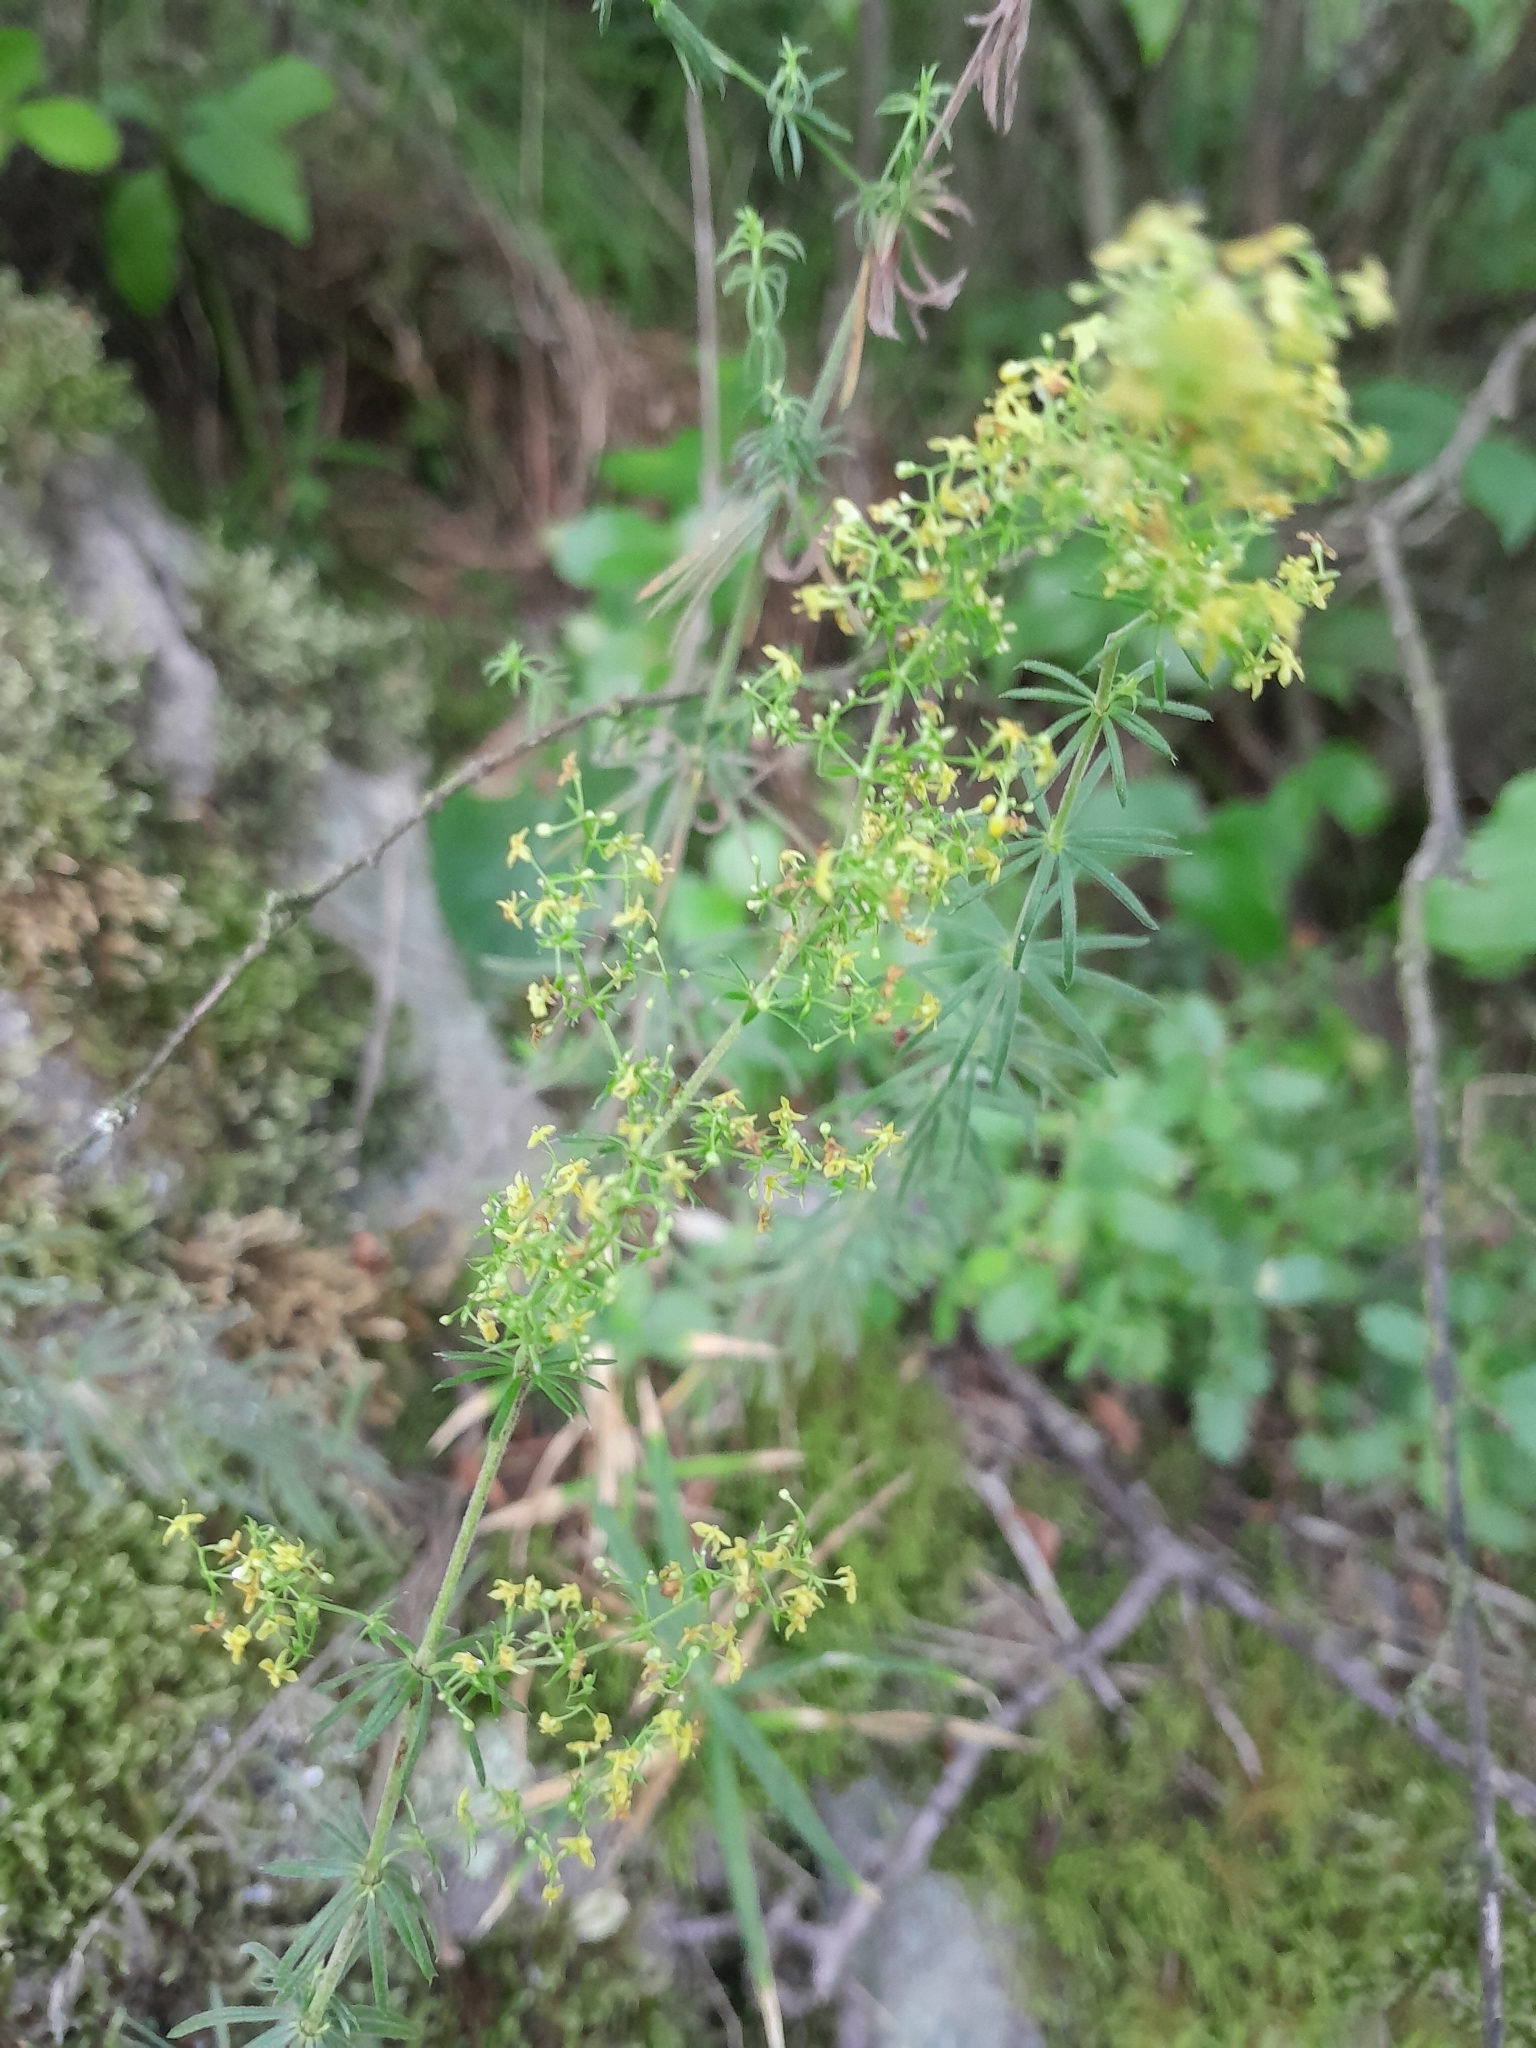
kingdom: Plantae
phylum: Tracheophyta
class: Magnoliopsida
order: Gentianales
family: Rubiaceae
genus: Galium
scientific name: Galium verum
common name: Lady's bedstraw
